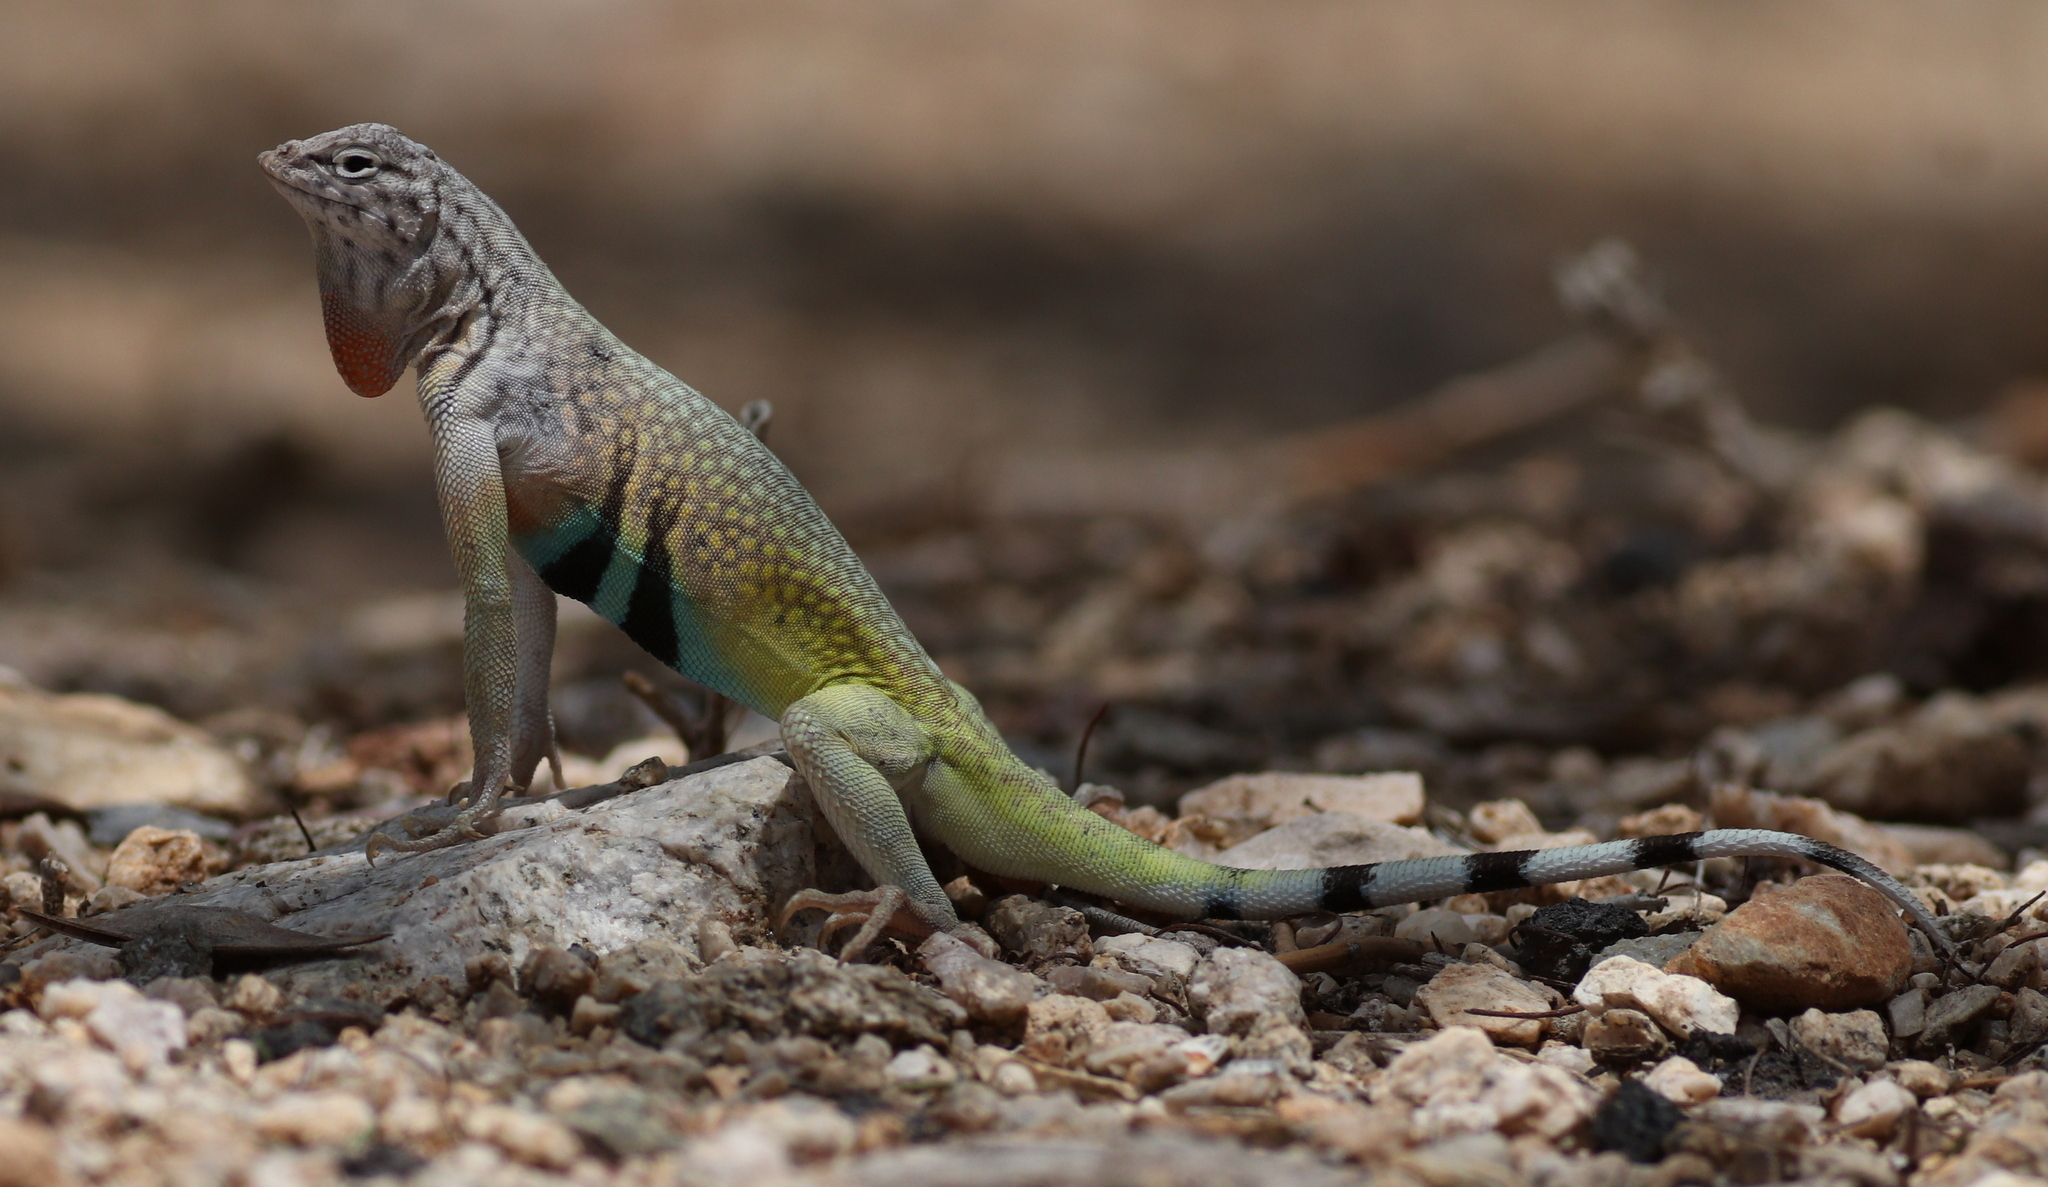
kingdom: Animalia
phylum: Chordata
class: Squamata
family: Phrynosomatidae
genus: Callisaurus
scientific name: Callisaurus draconoides
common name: Zebra-tailed lizard
